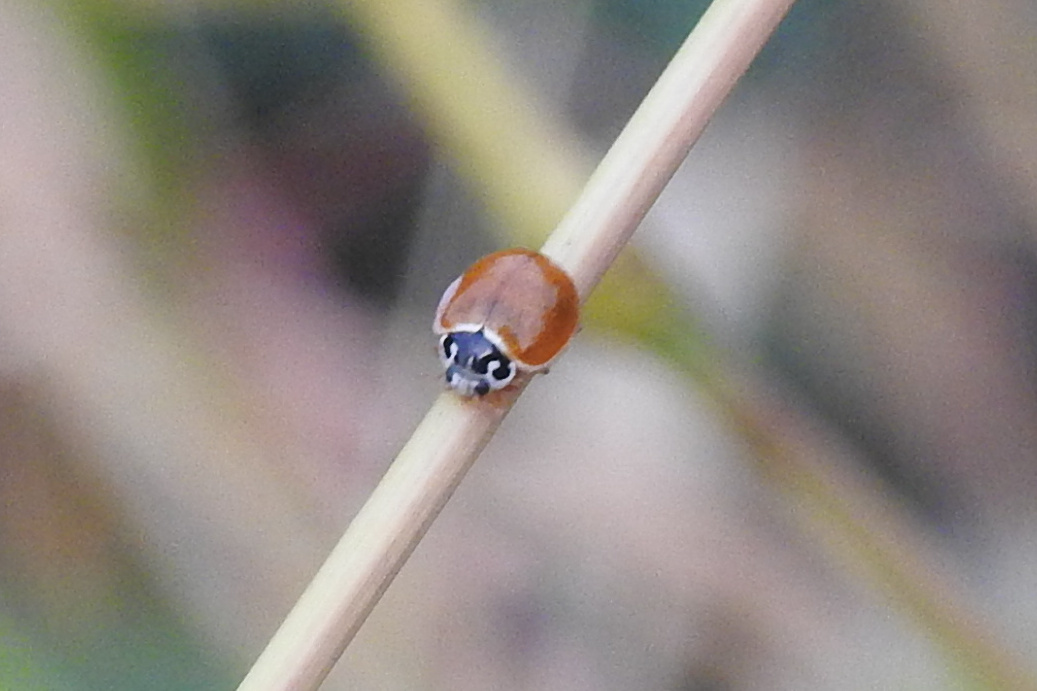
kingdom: Animalia
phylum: Arthropoda
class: Insecta
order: Coleoptera
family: Coccinellidae
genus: Cycloneda
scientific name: Cycloneda munda
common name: Polished lady beetle
